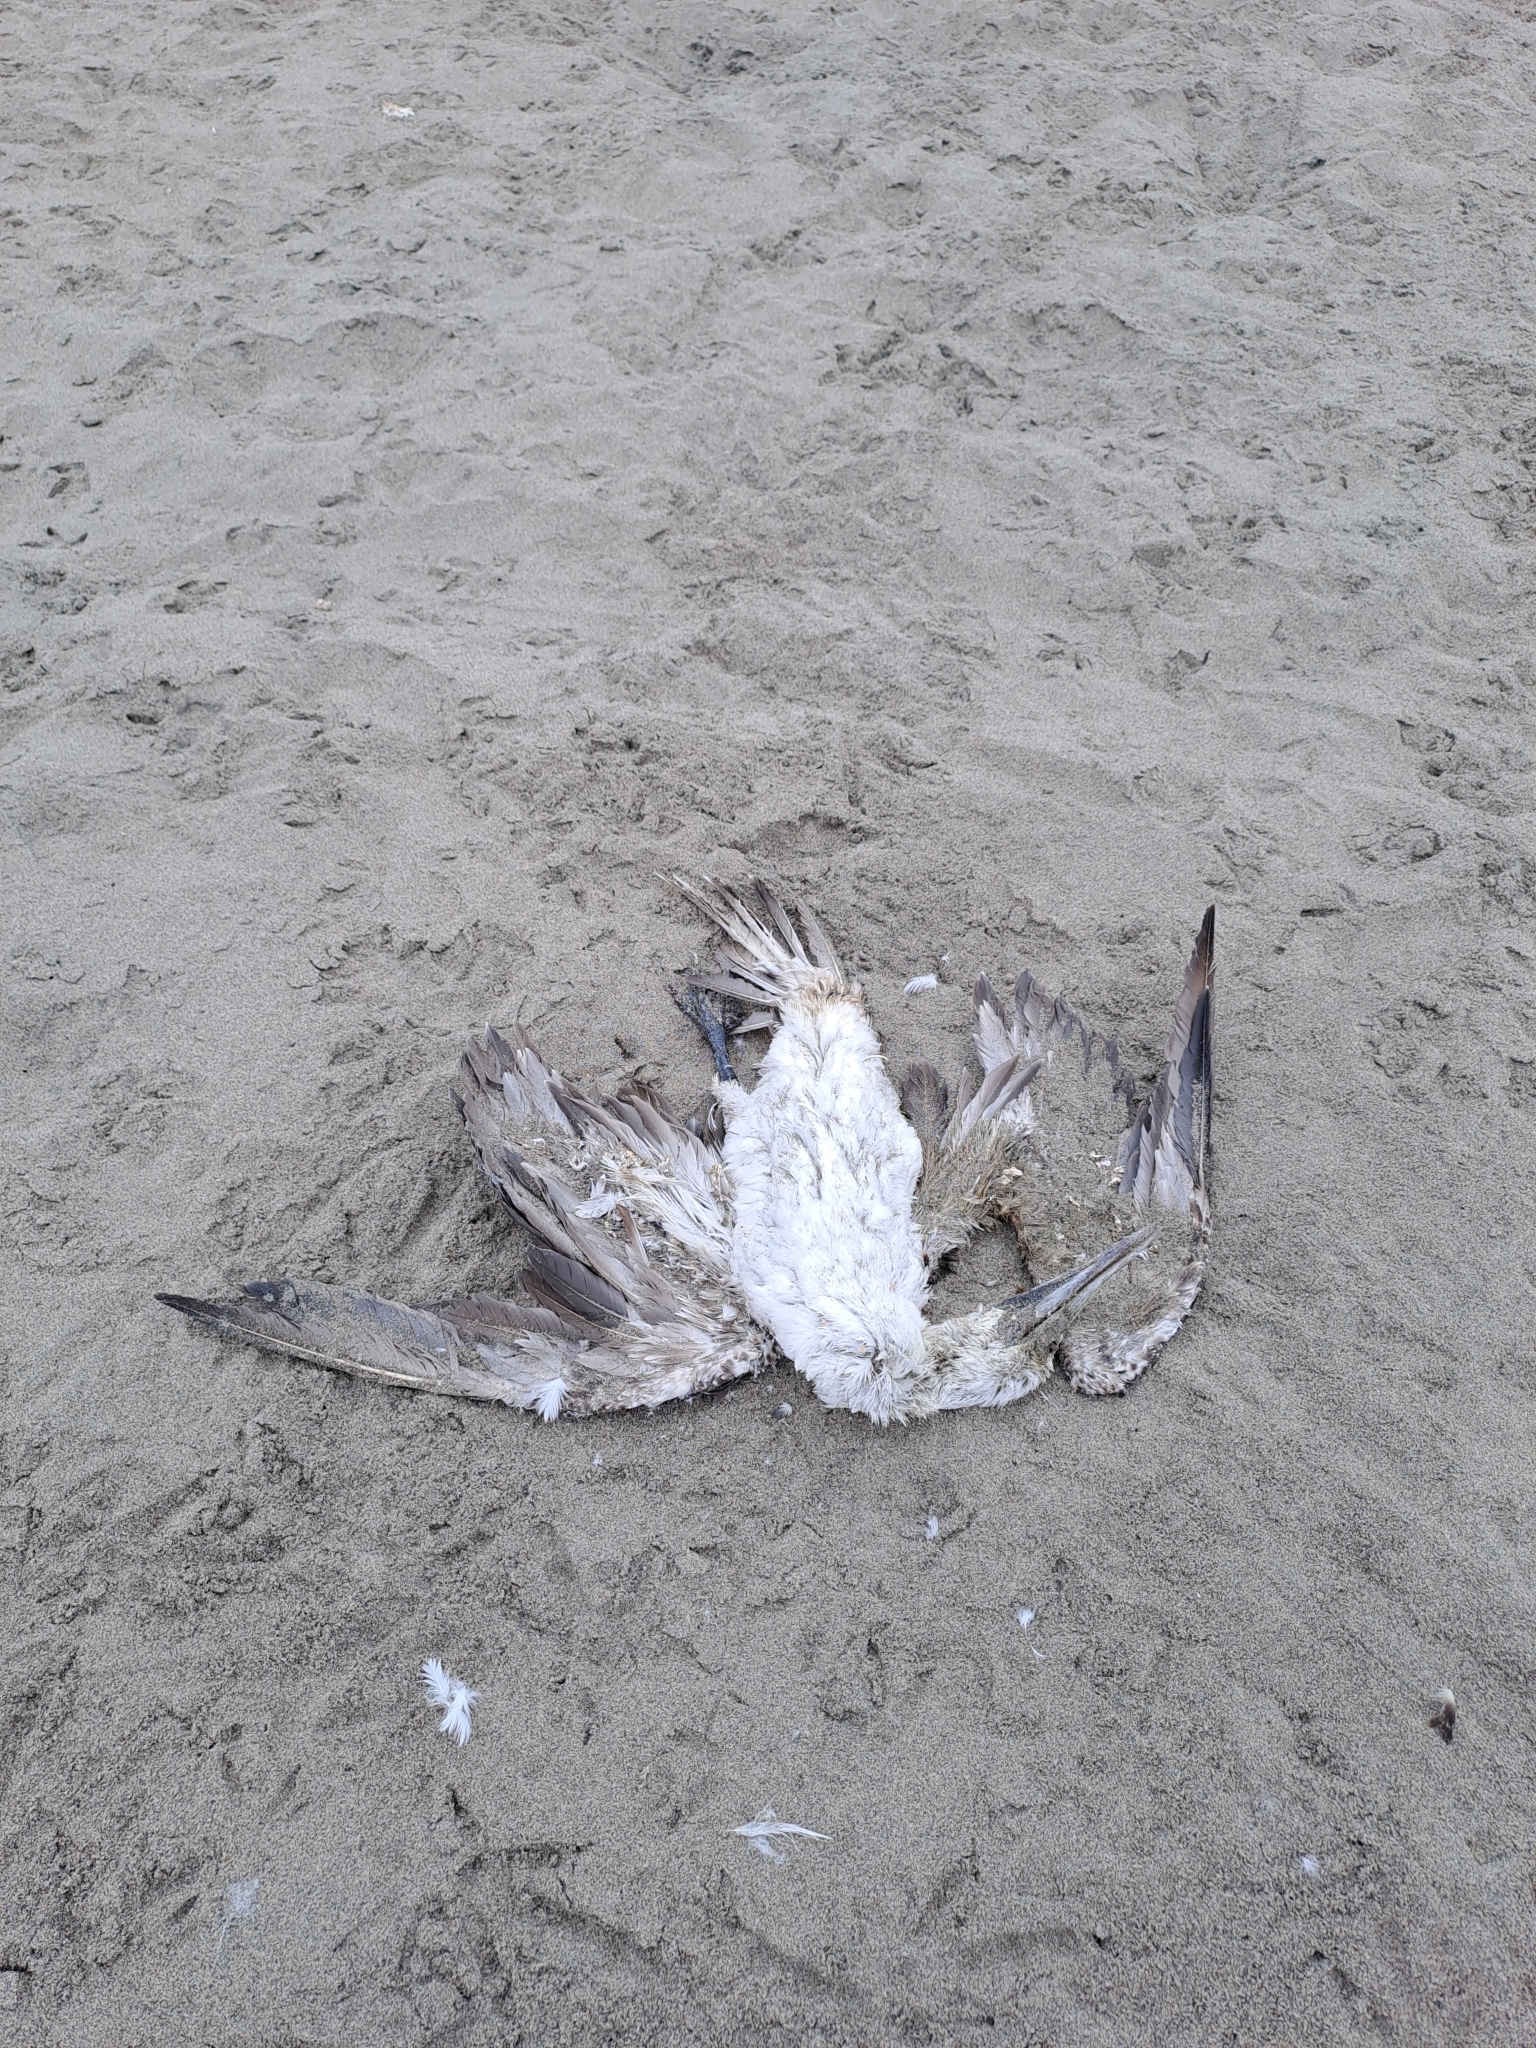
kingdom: Animalia
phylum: Chordata
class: Aves
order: Suliformes
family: Sulidae
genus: Sula
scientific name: Sula variegata
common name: Peruvian booby
